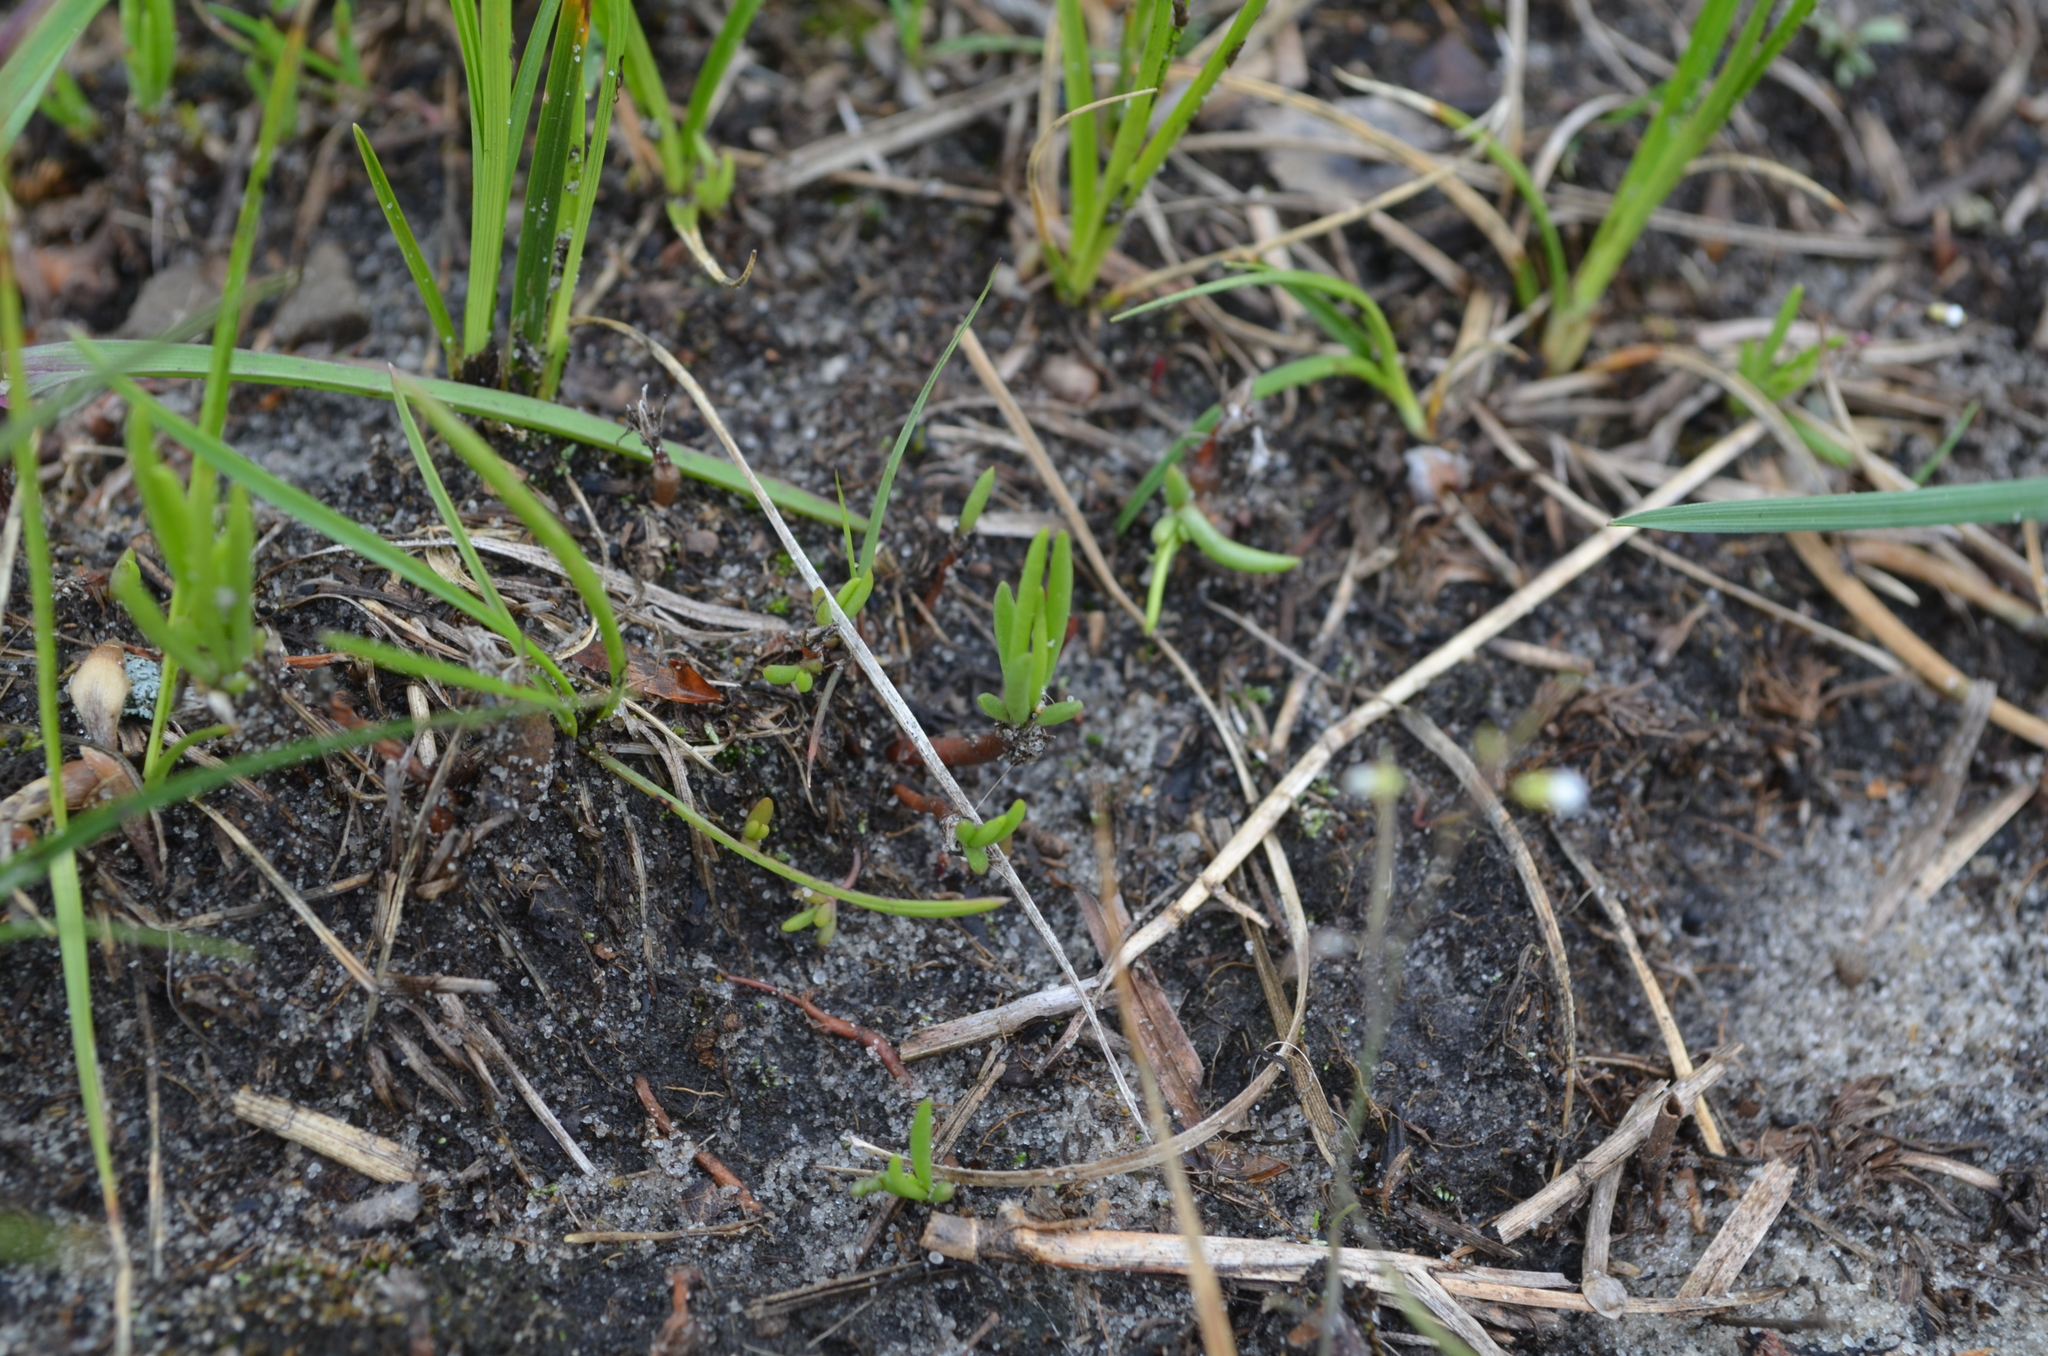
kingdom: Plantae
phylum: Tracheophyta
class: Magnoliopsida
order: Caryophyllales
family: Montiaceae
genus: Phemeranthus
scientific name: Phemeranthus rugospermus
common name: Prairie fameflower
